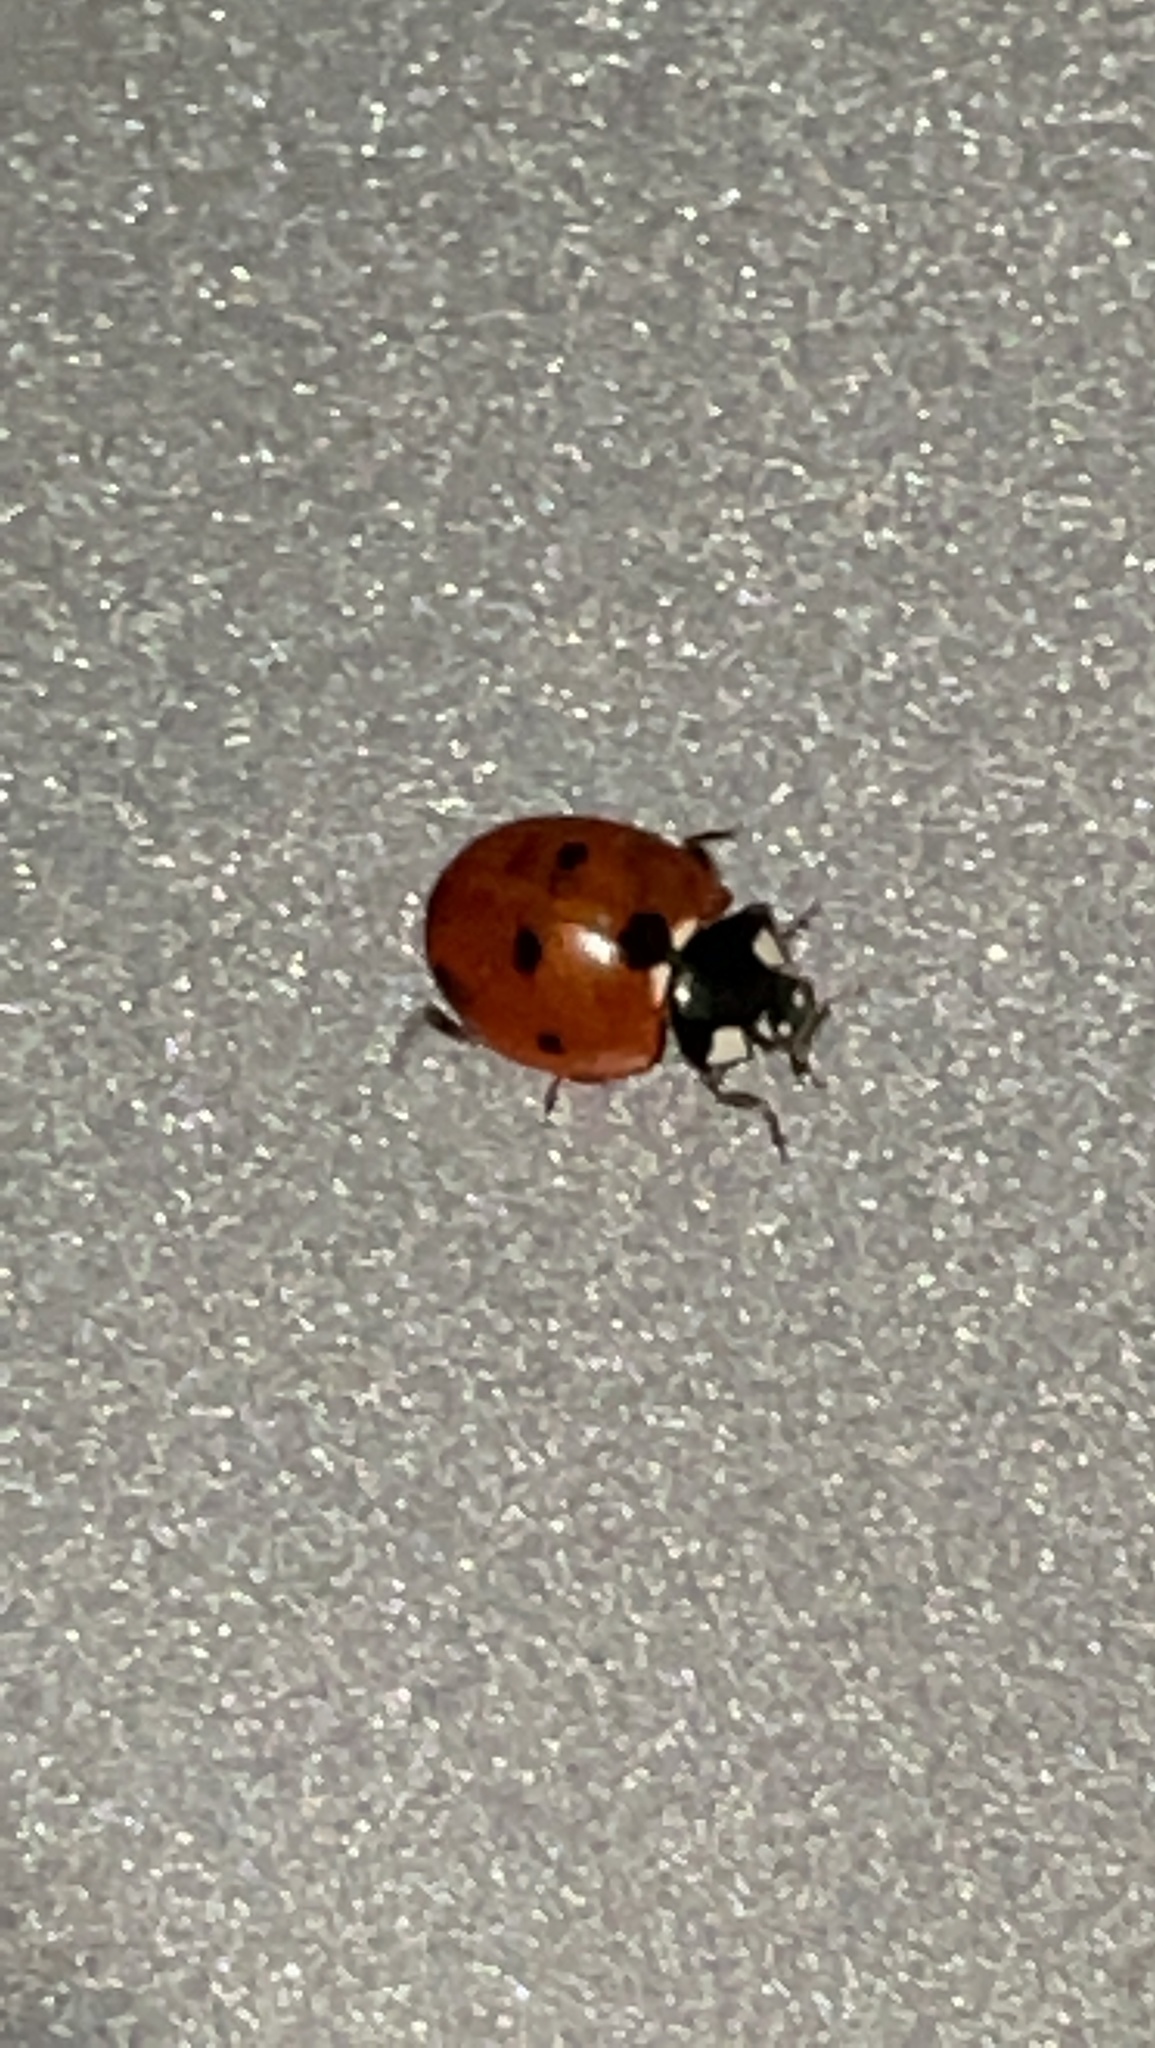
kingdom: Animalia
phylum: Arthropoda
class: Insecta
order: Coleoptera
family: Coccinellidae
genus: Coccinella
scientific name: Coccinella septempunctata
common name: Sevenspotted lady beetle
